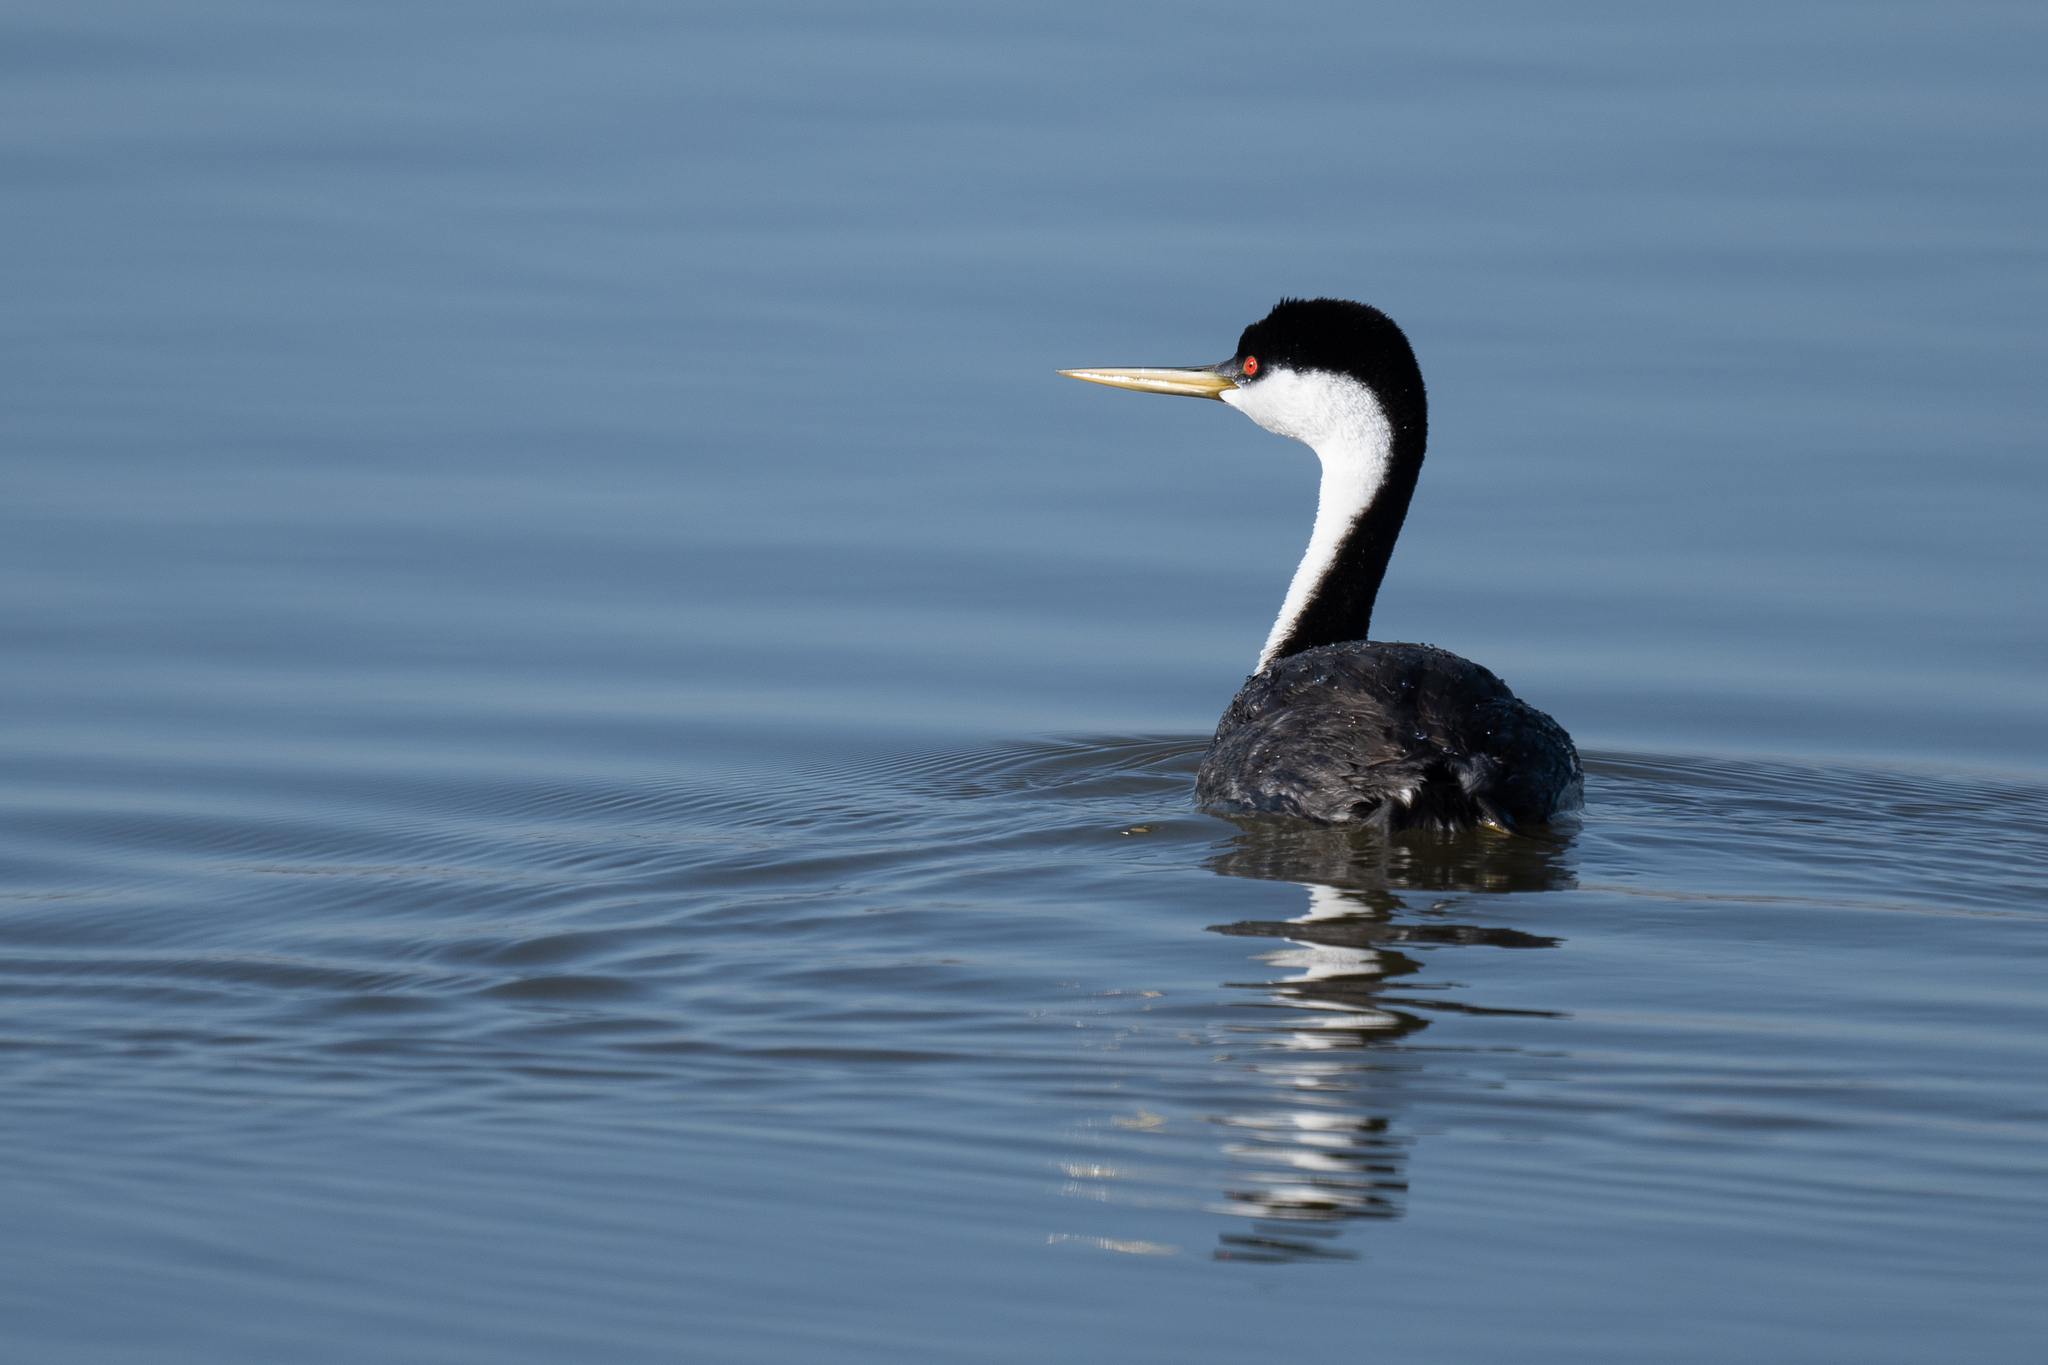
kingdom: Animalia
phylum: Chordata
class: Aves
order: Podicipediformes
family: Podicipedidae
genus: Aechmophorus
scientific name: Aechmophorus occidentalis
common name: Western grebe
